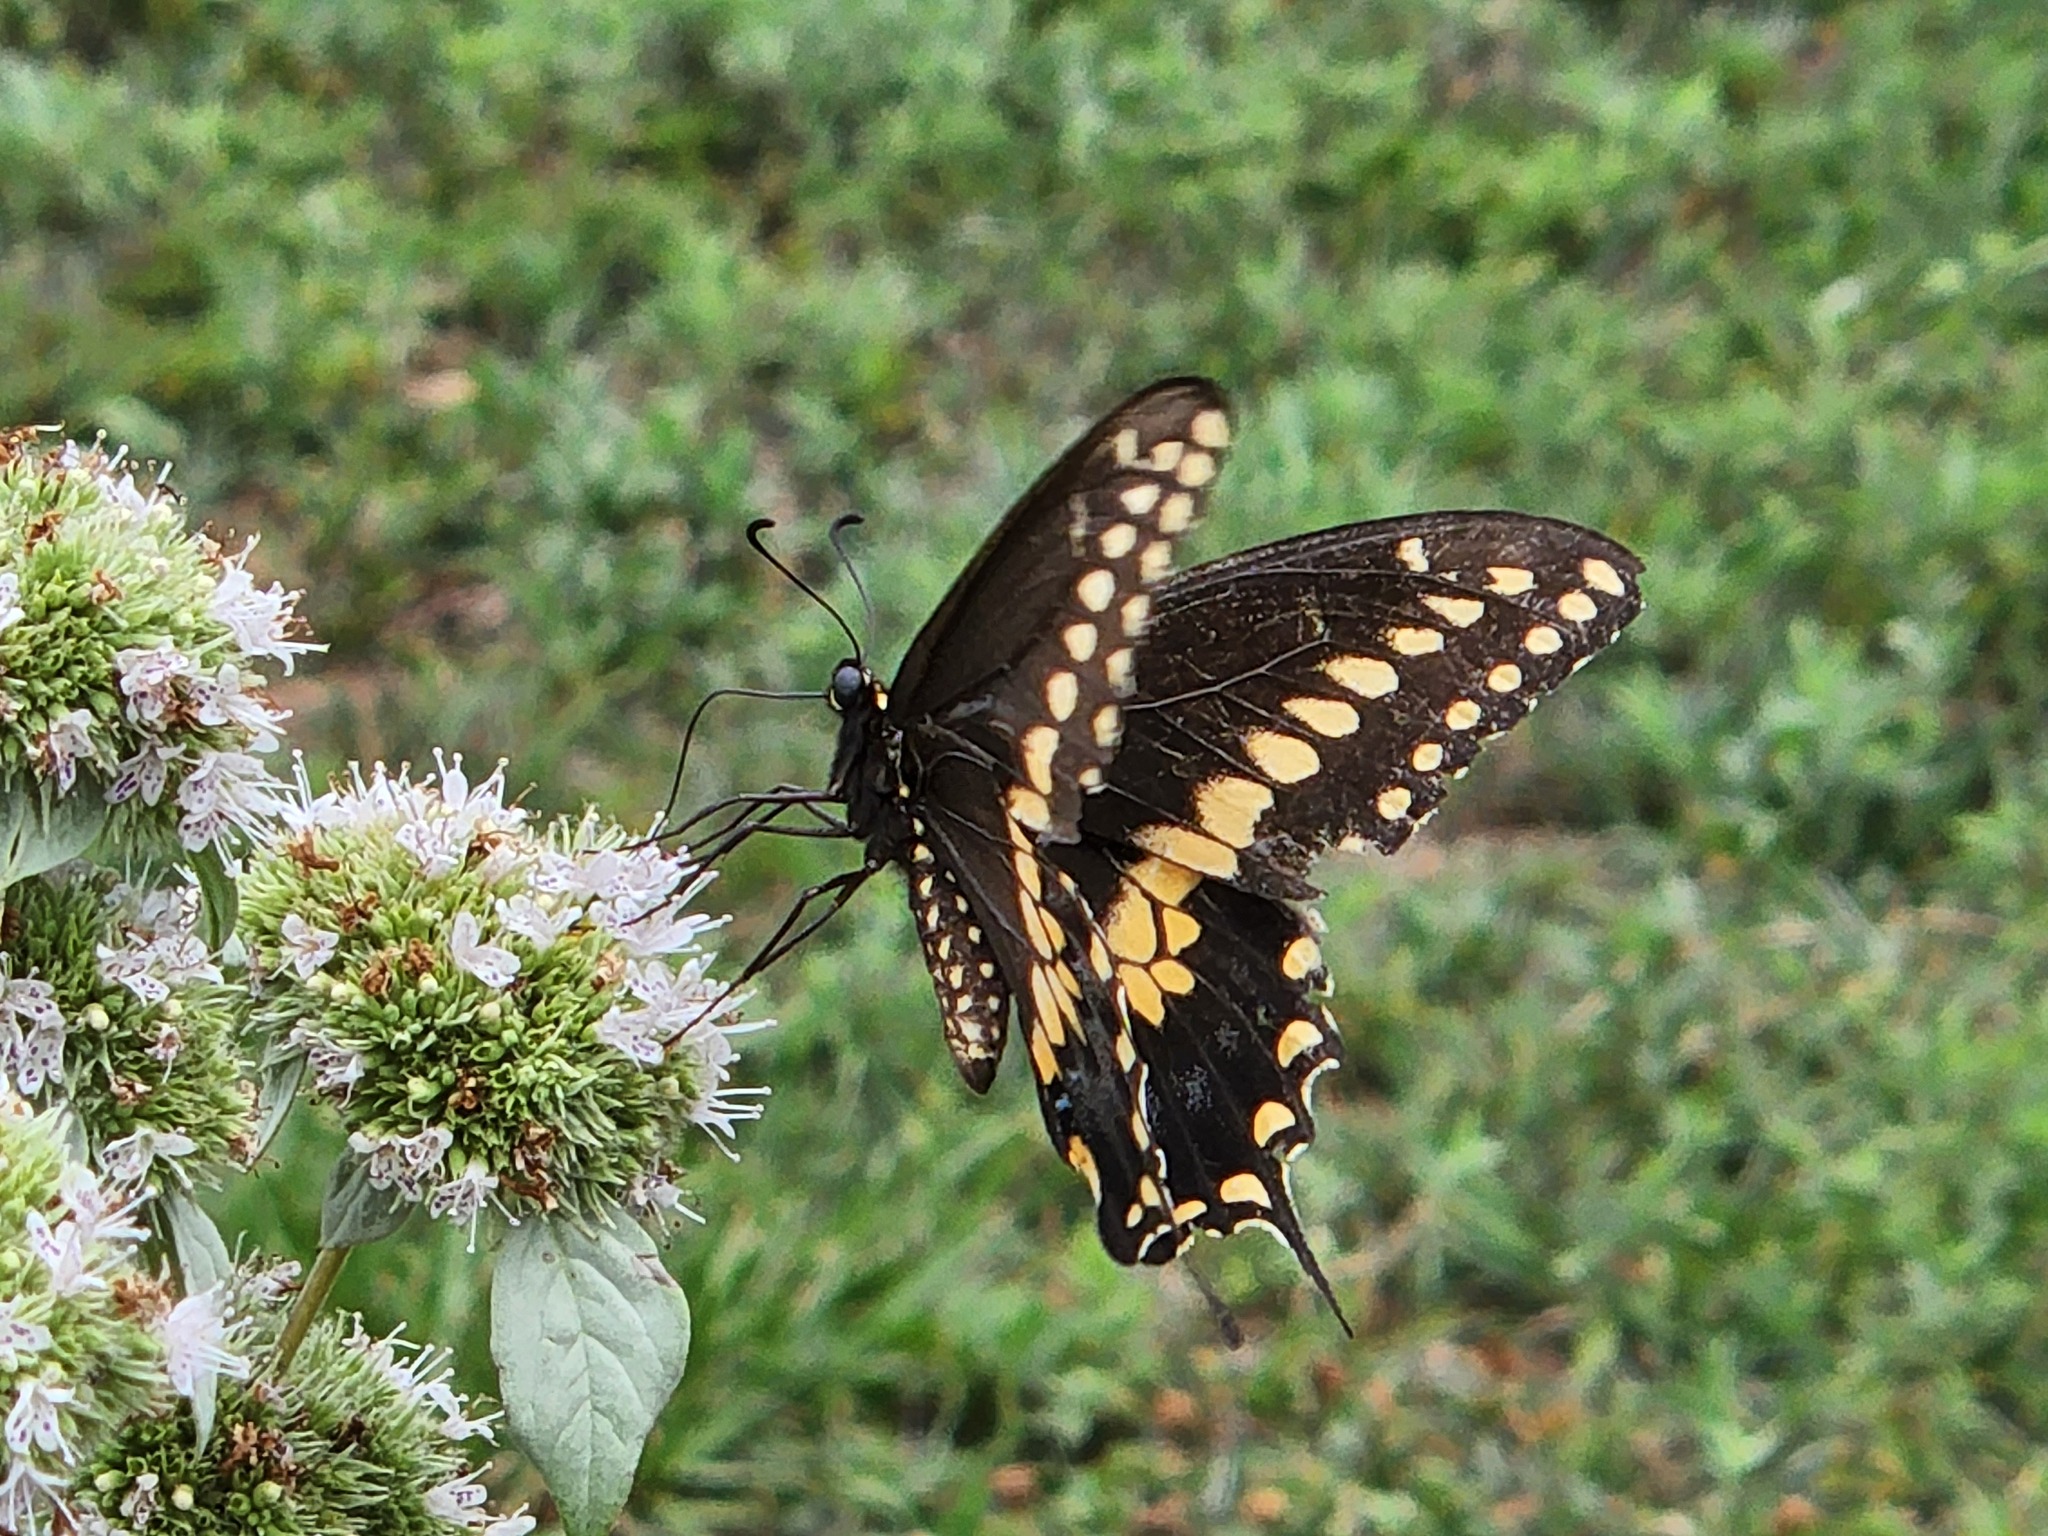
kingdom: Animalia
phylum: Arthropoda
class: Insecta
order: Lepidoptera
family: Papilionidae
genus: Papilio
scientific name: Papilio polyxenes
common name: Black swallowtail
